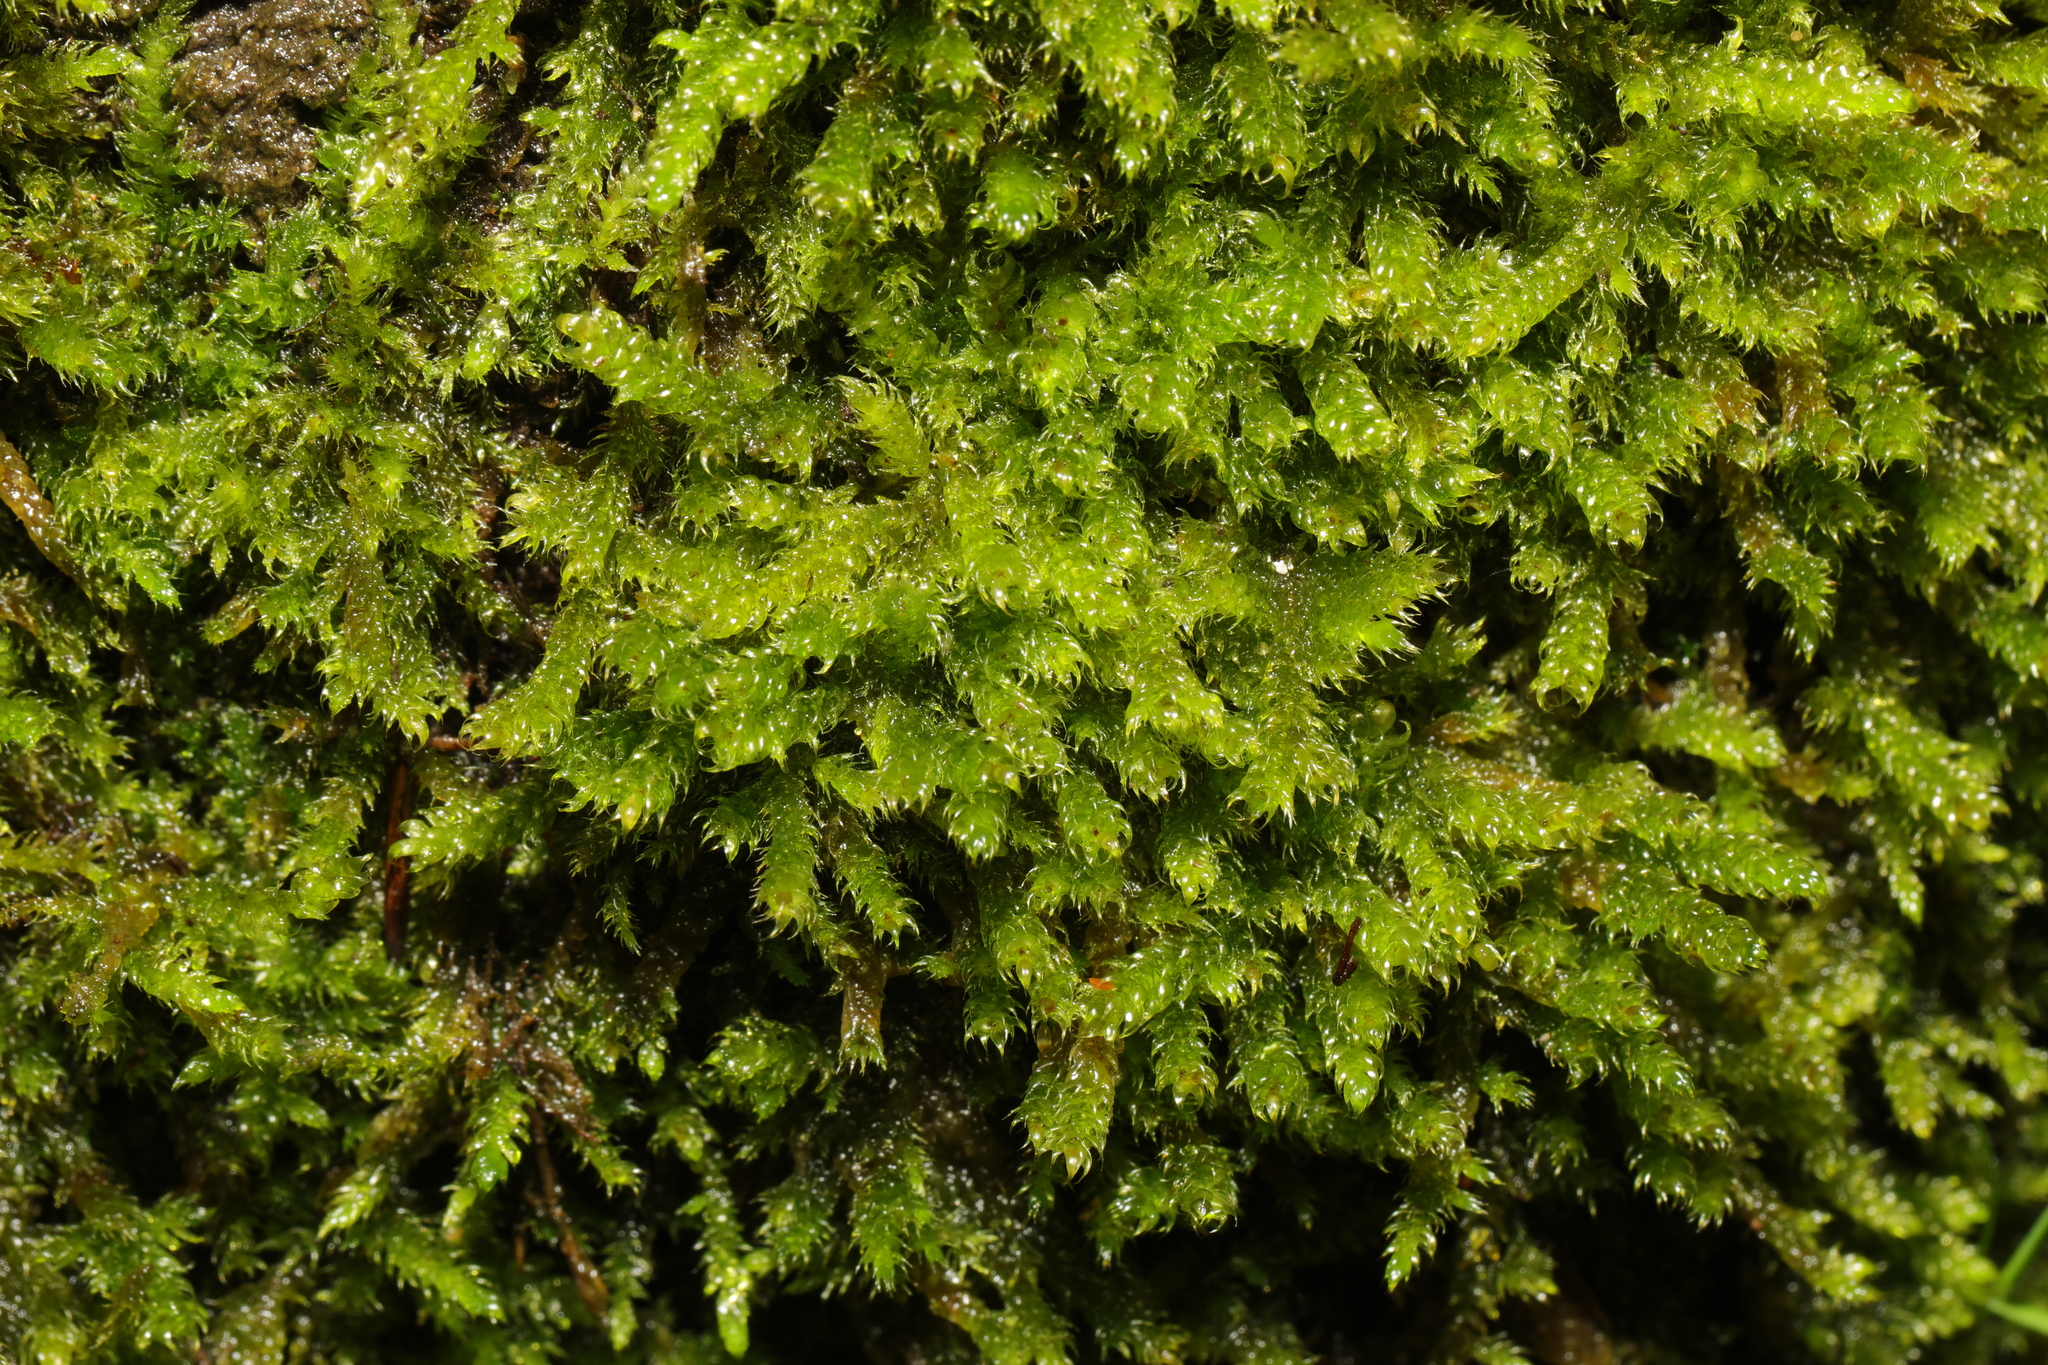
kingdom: Plantae
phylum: Bryophyta
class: Bryopsida
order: Hypnales
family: Hypnaceae
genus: Hypnum
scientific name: Hypnum cupressiforme
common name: Cypress-leaved plait-moss
